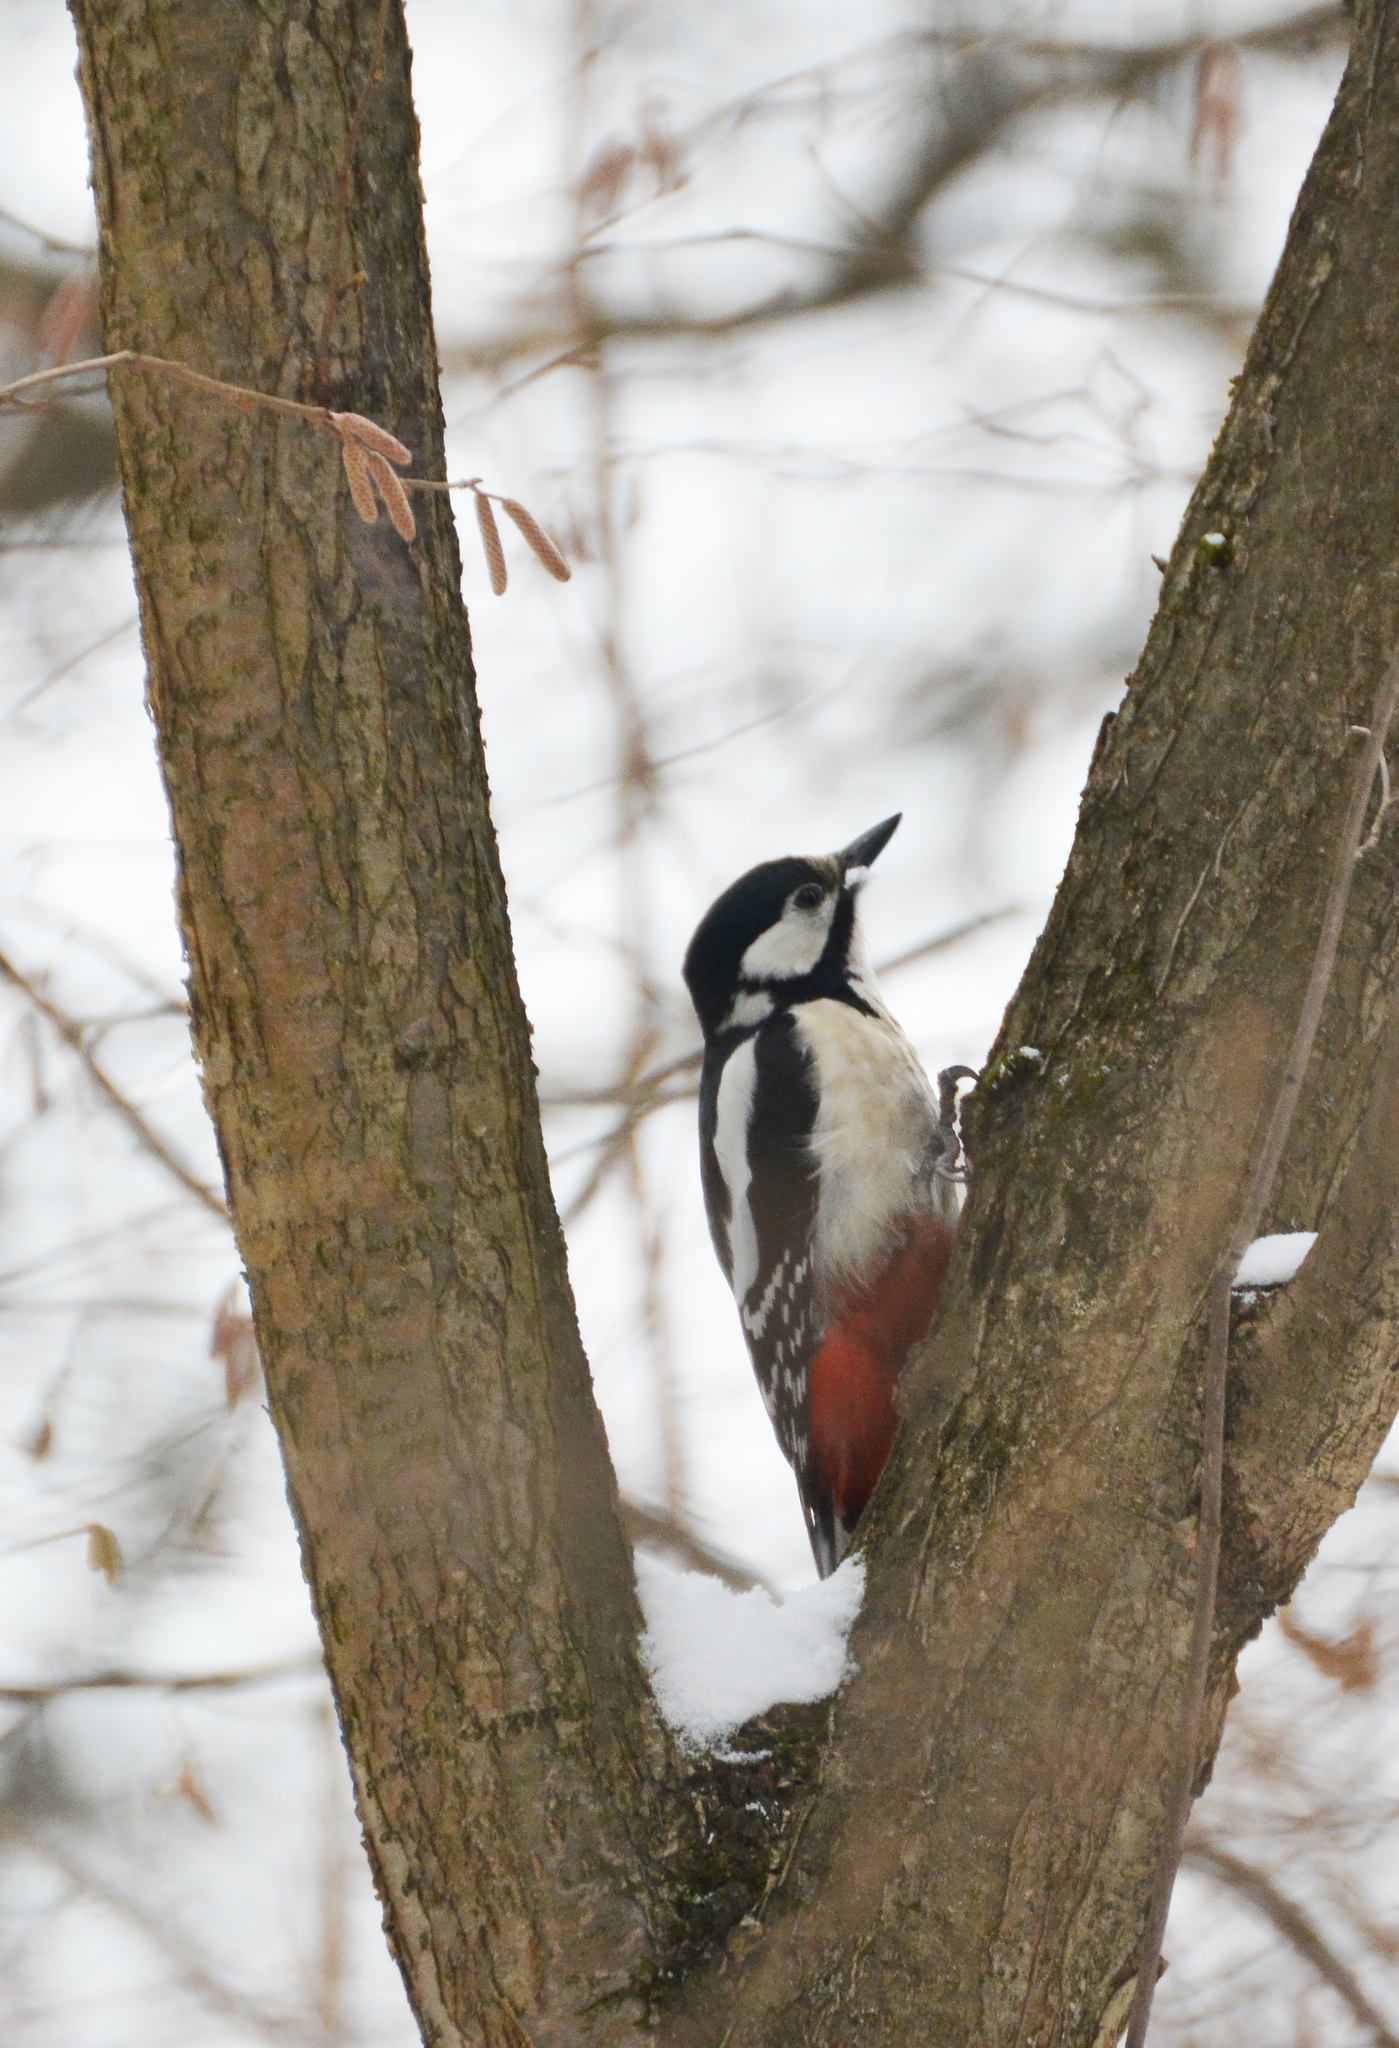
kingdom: Animalia
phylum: Chordata
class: Aves
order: Piciformes
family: Picidae
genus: Dendrocopos
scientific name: Dendrocopos major
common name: Great spotted woodpecker
